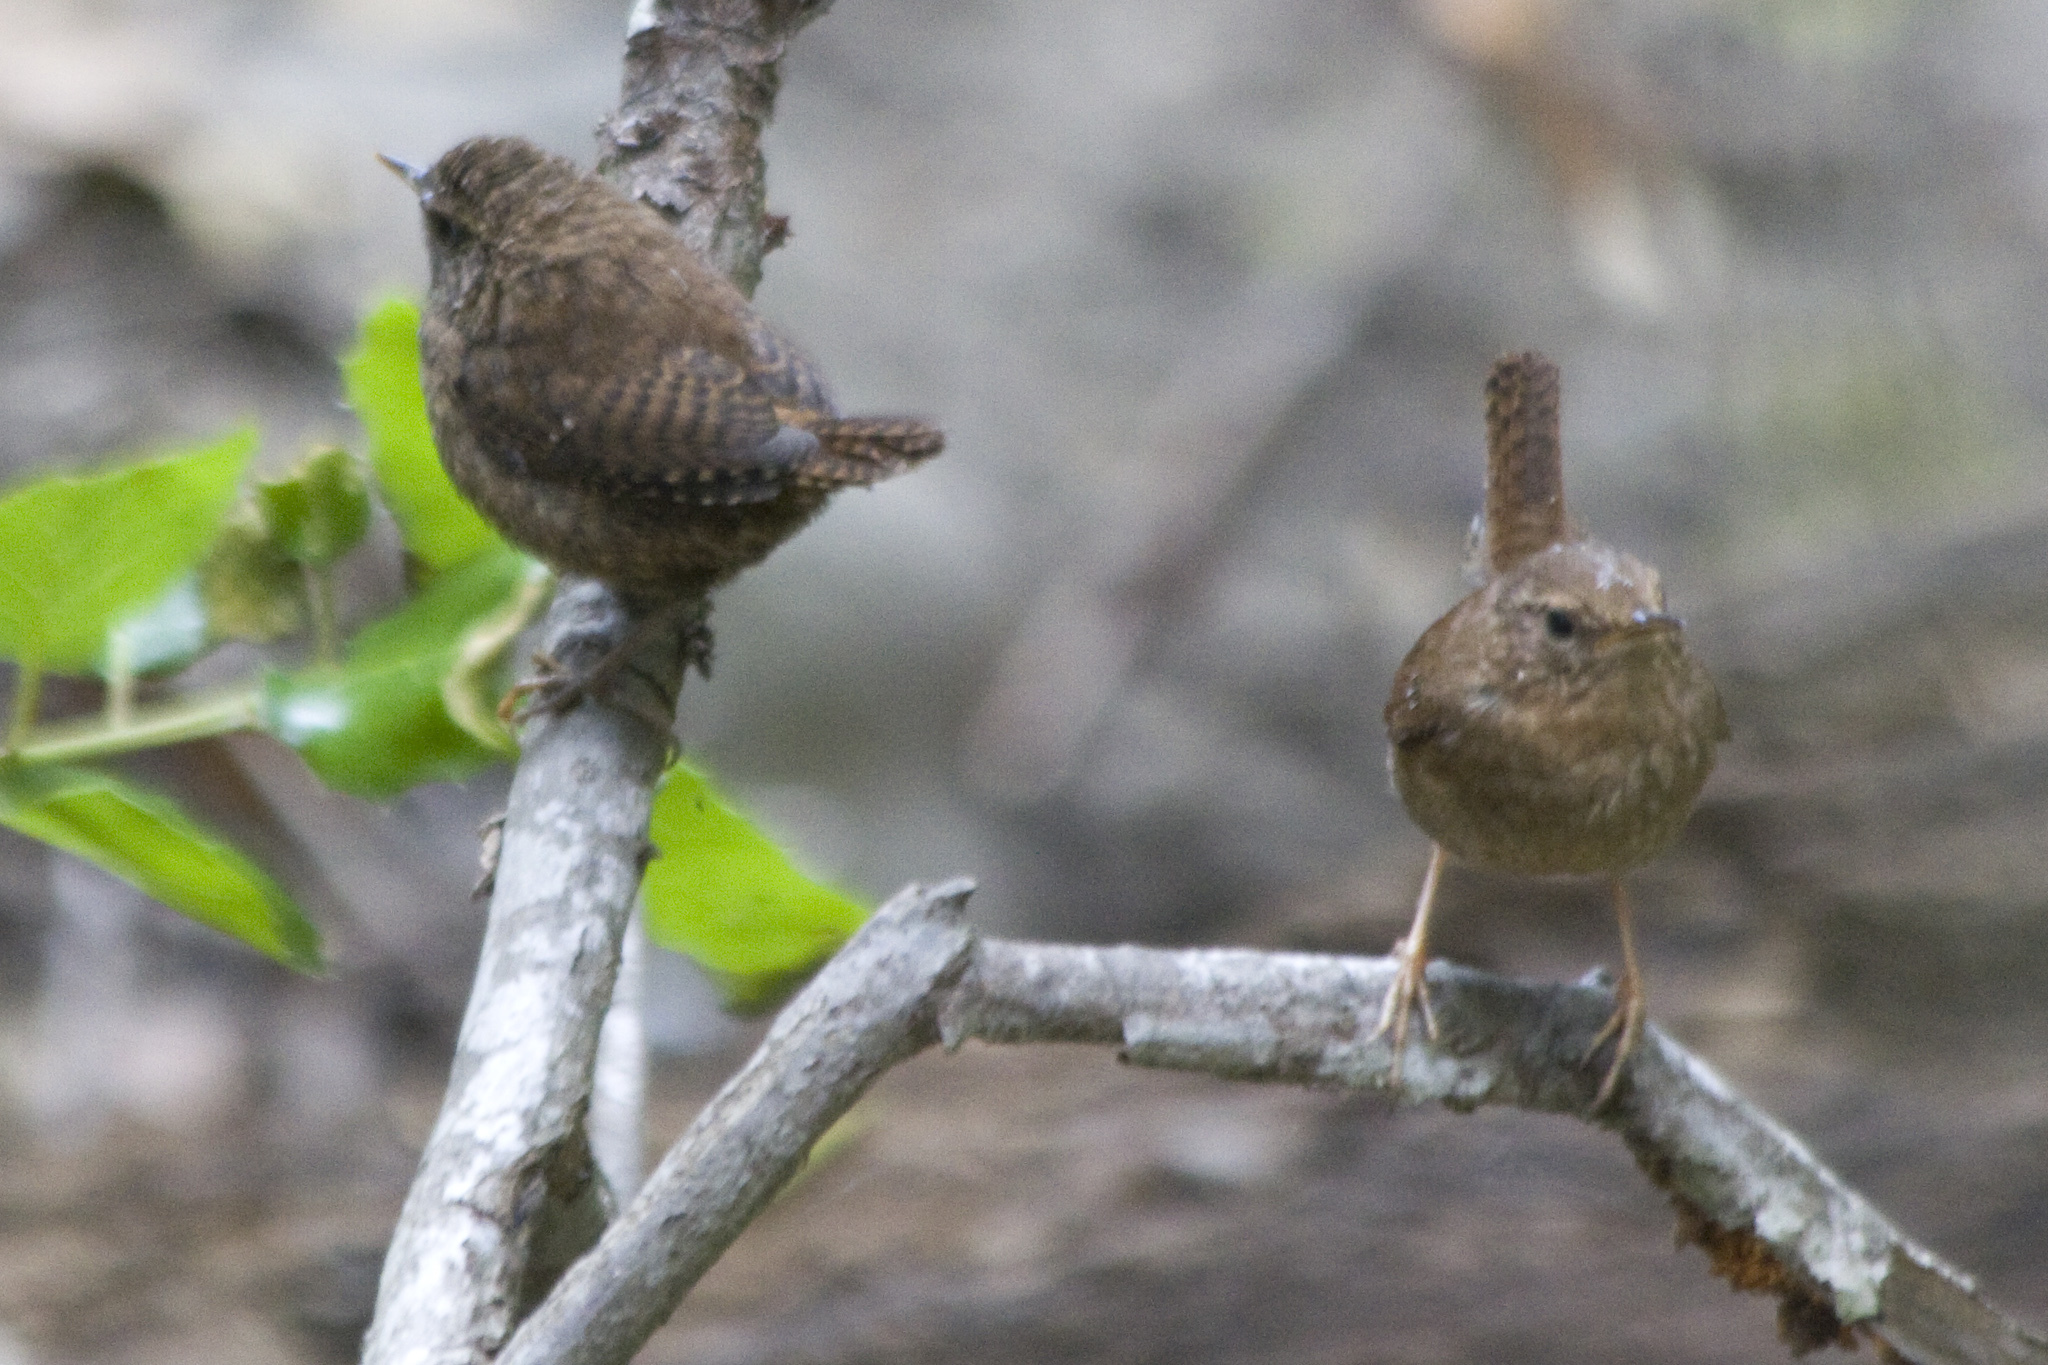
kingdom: Animalia
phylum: Chordata
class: Aves
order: Passeriformes
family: Troglodytidae
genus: Troglodytes
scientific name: Troglodytes pacificus
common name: Pacific wren
